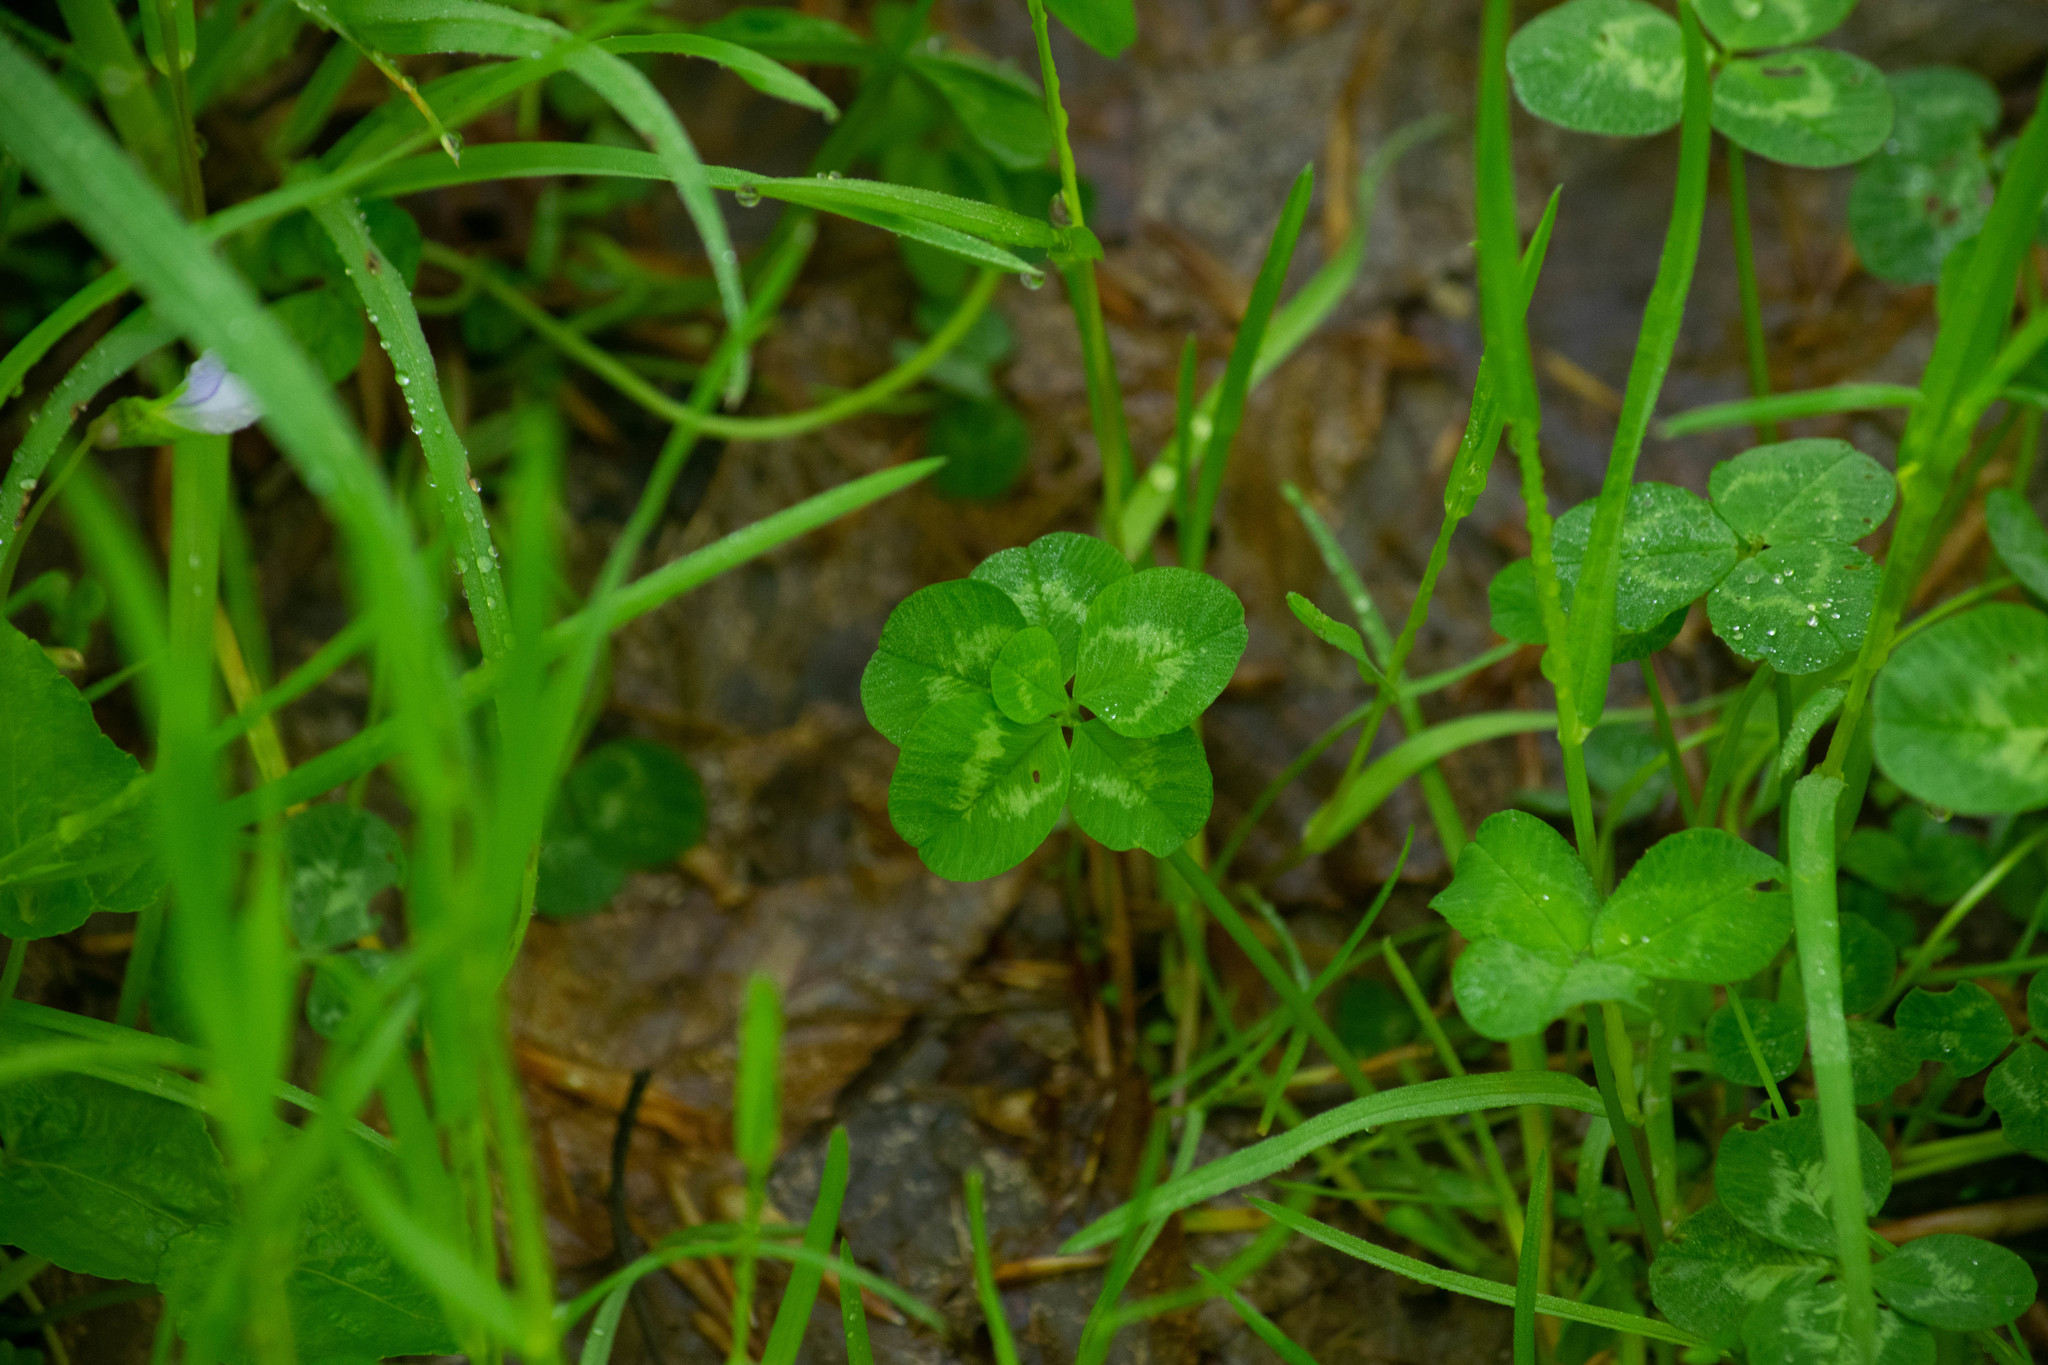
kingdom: Plantae
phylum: Tracheophyta
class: Magnoliopsida
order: Fabales
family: Fabaceae
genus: Trifolium
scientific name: Trifolium repens
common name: White clover
